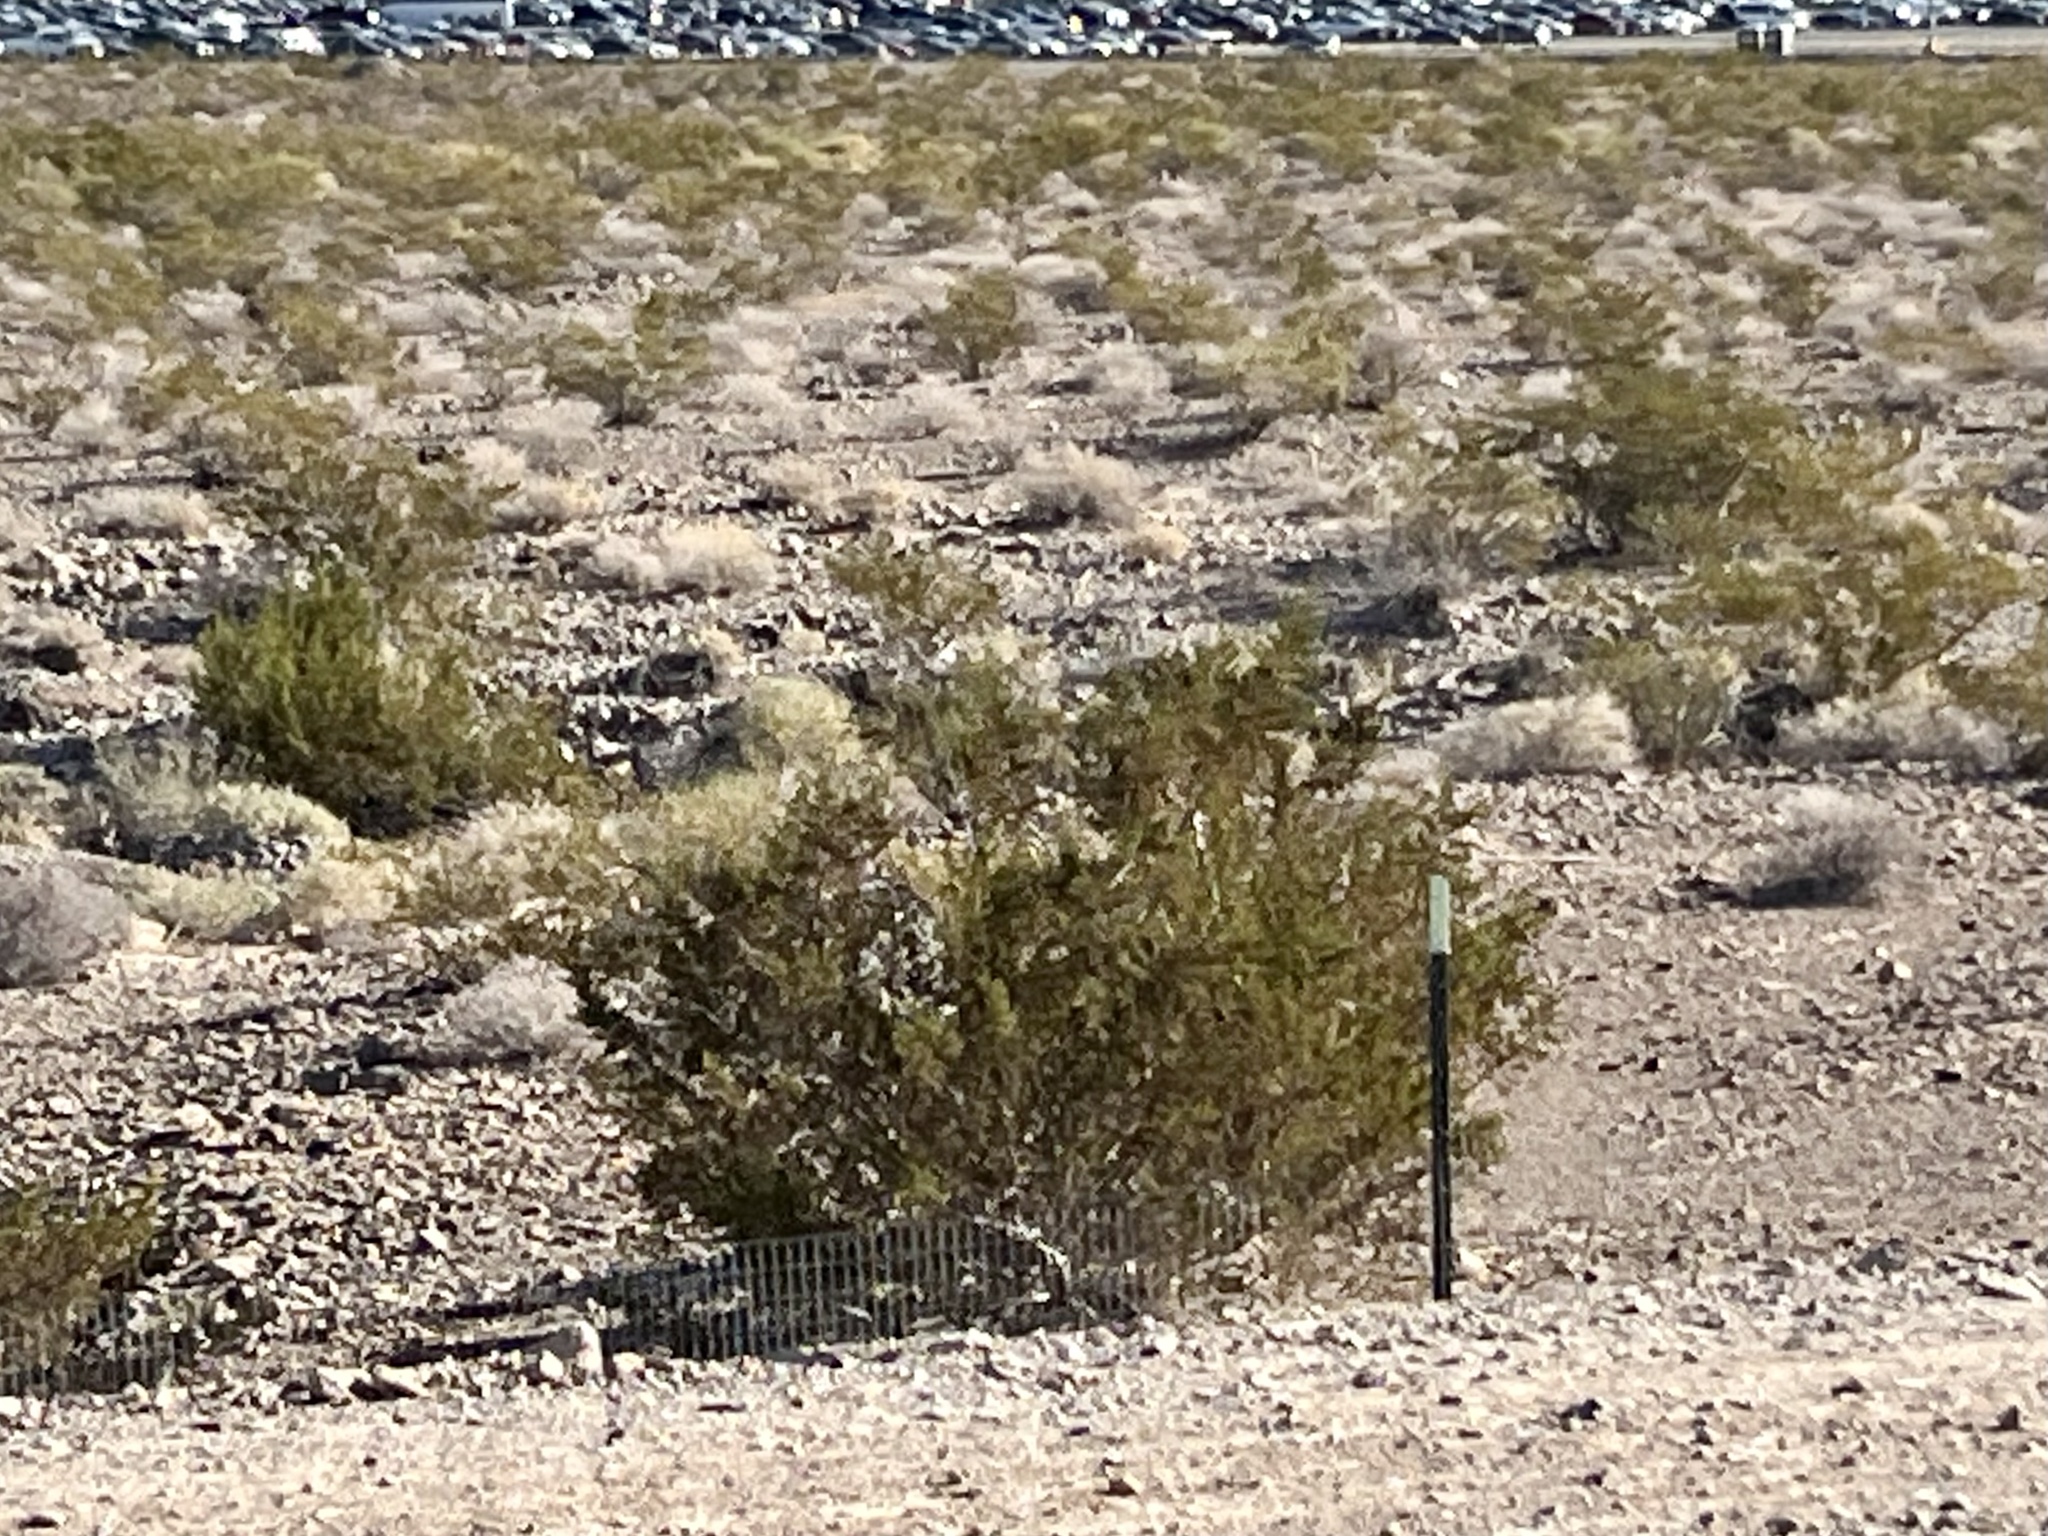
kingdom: Plantae
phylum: Tracheophyta
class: Magnoliopsida
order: Zygophyllales
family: Zygophyllaceae
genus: Larrea
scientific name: Larrea tridentata
